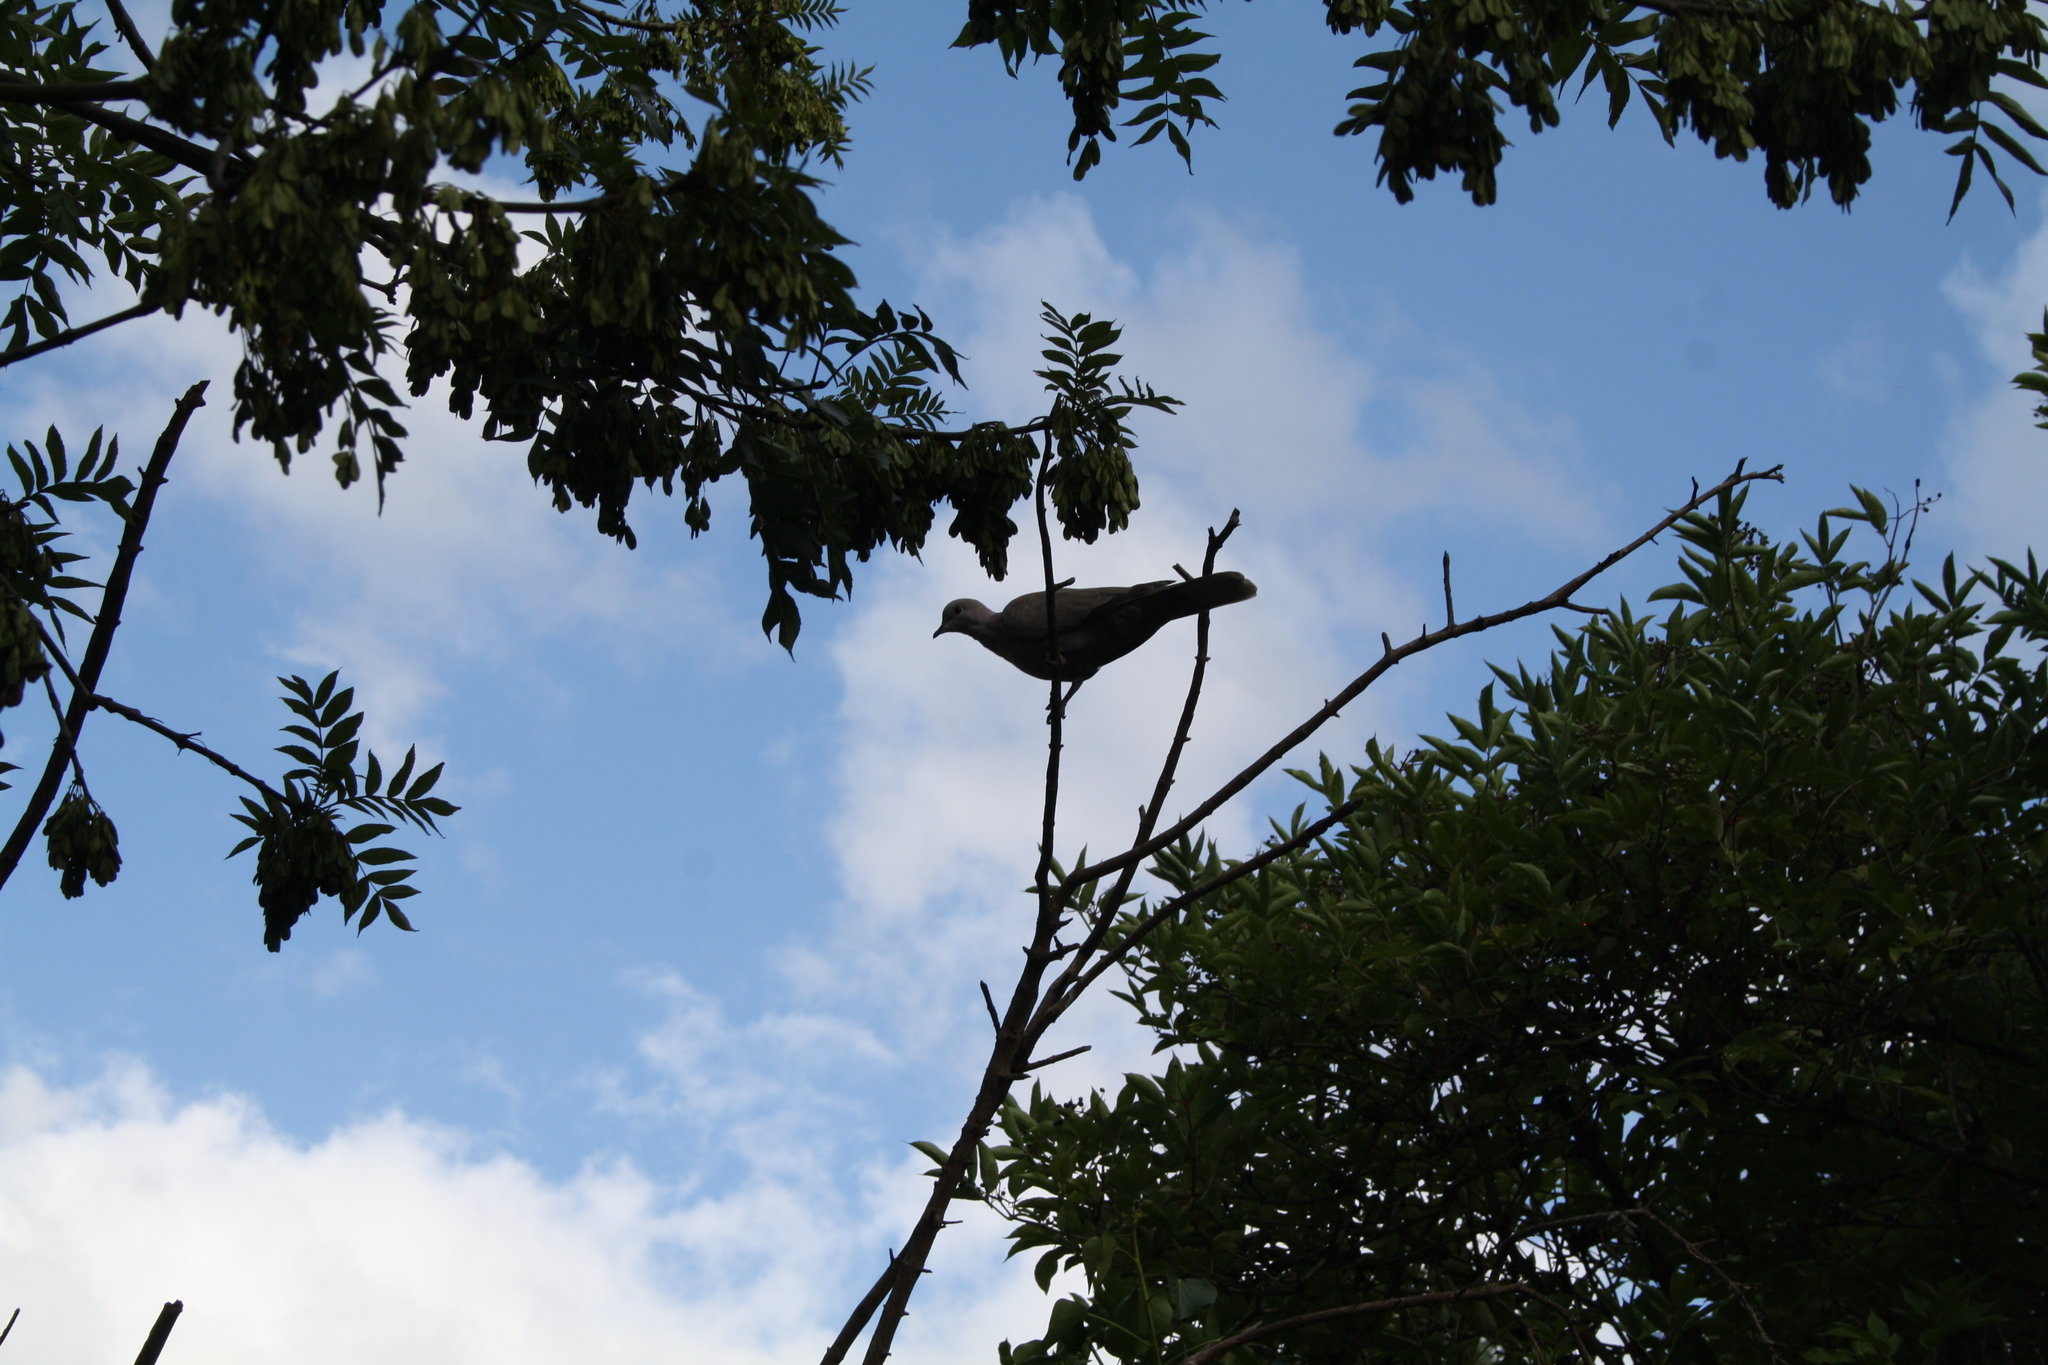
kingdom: Animalia
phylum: Chordata
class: Aves
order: Columbiformes
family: Columbidae
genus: Streptopelia
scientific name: Streptopelia decaocto
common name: Eurasian collared dove
